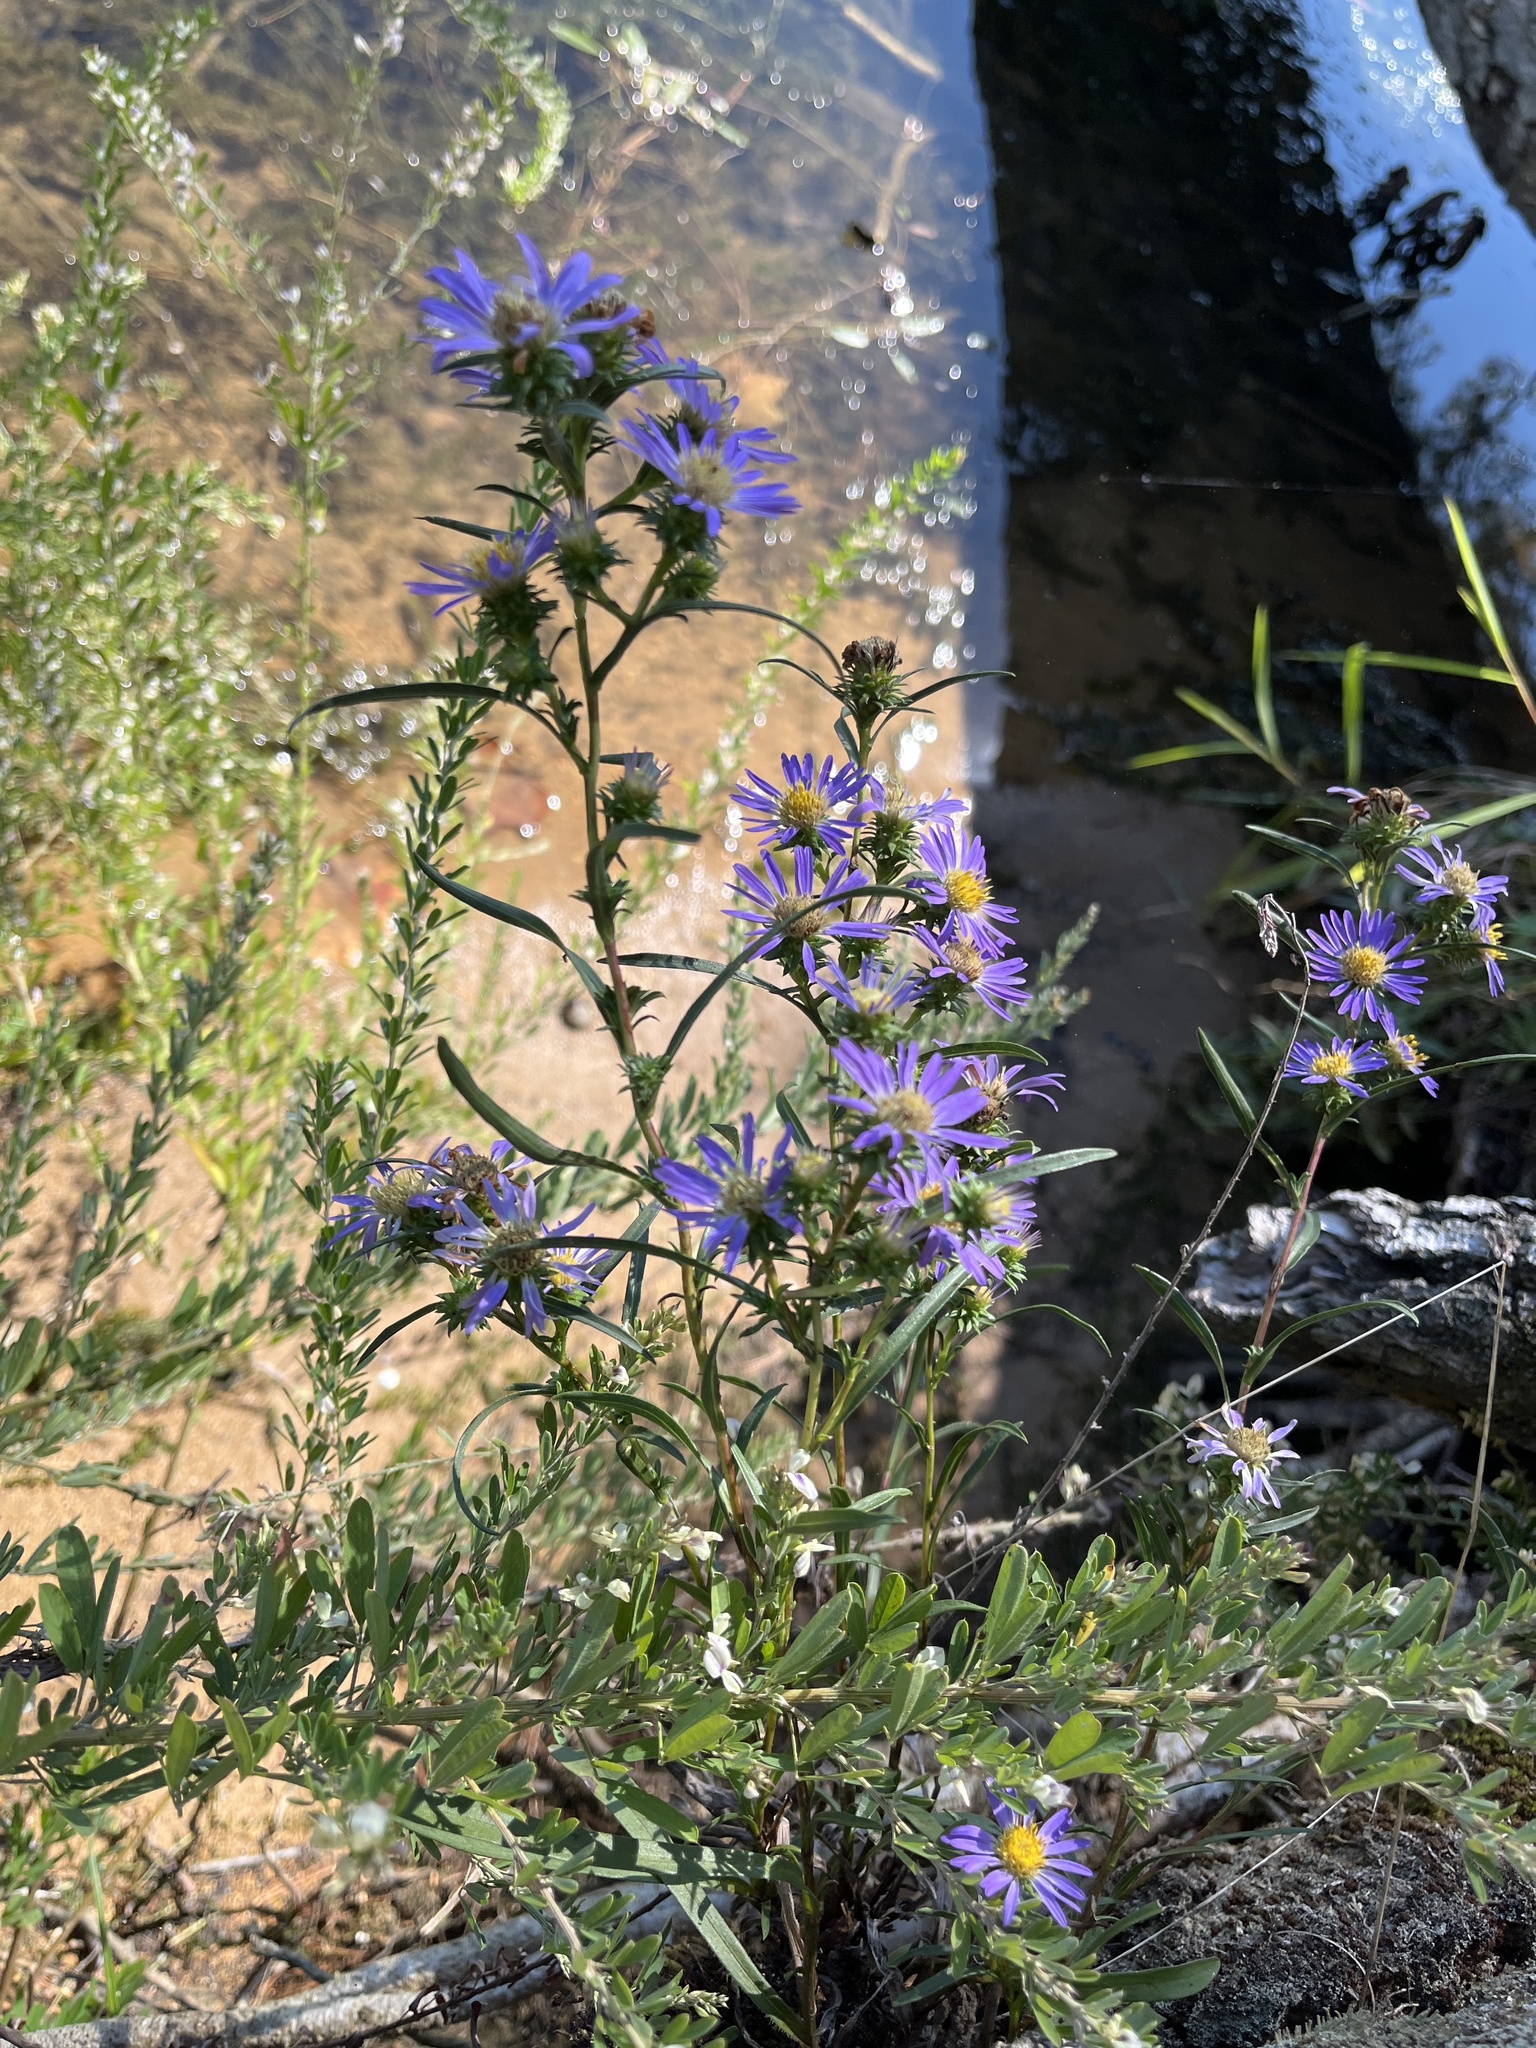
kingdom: Plantae
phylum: Tracheophyta
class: Magnoliopsida
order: Asterales
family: Asteraceae
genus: Eurybia
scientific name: Eurybia hemispherica
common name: Showy aster
